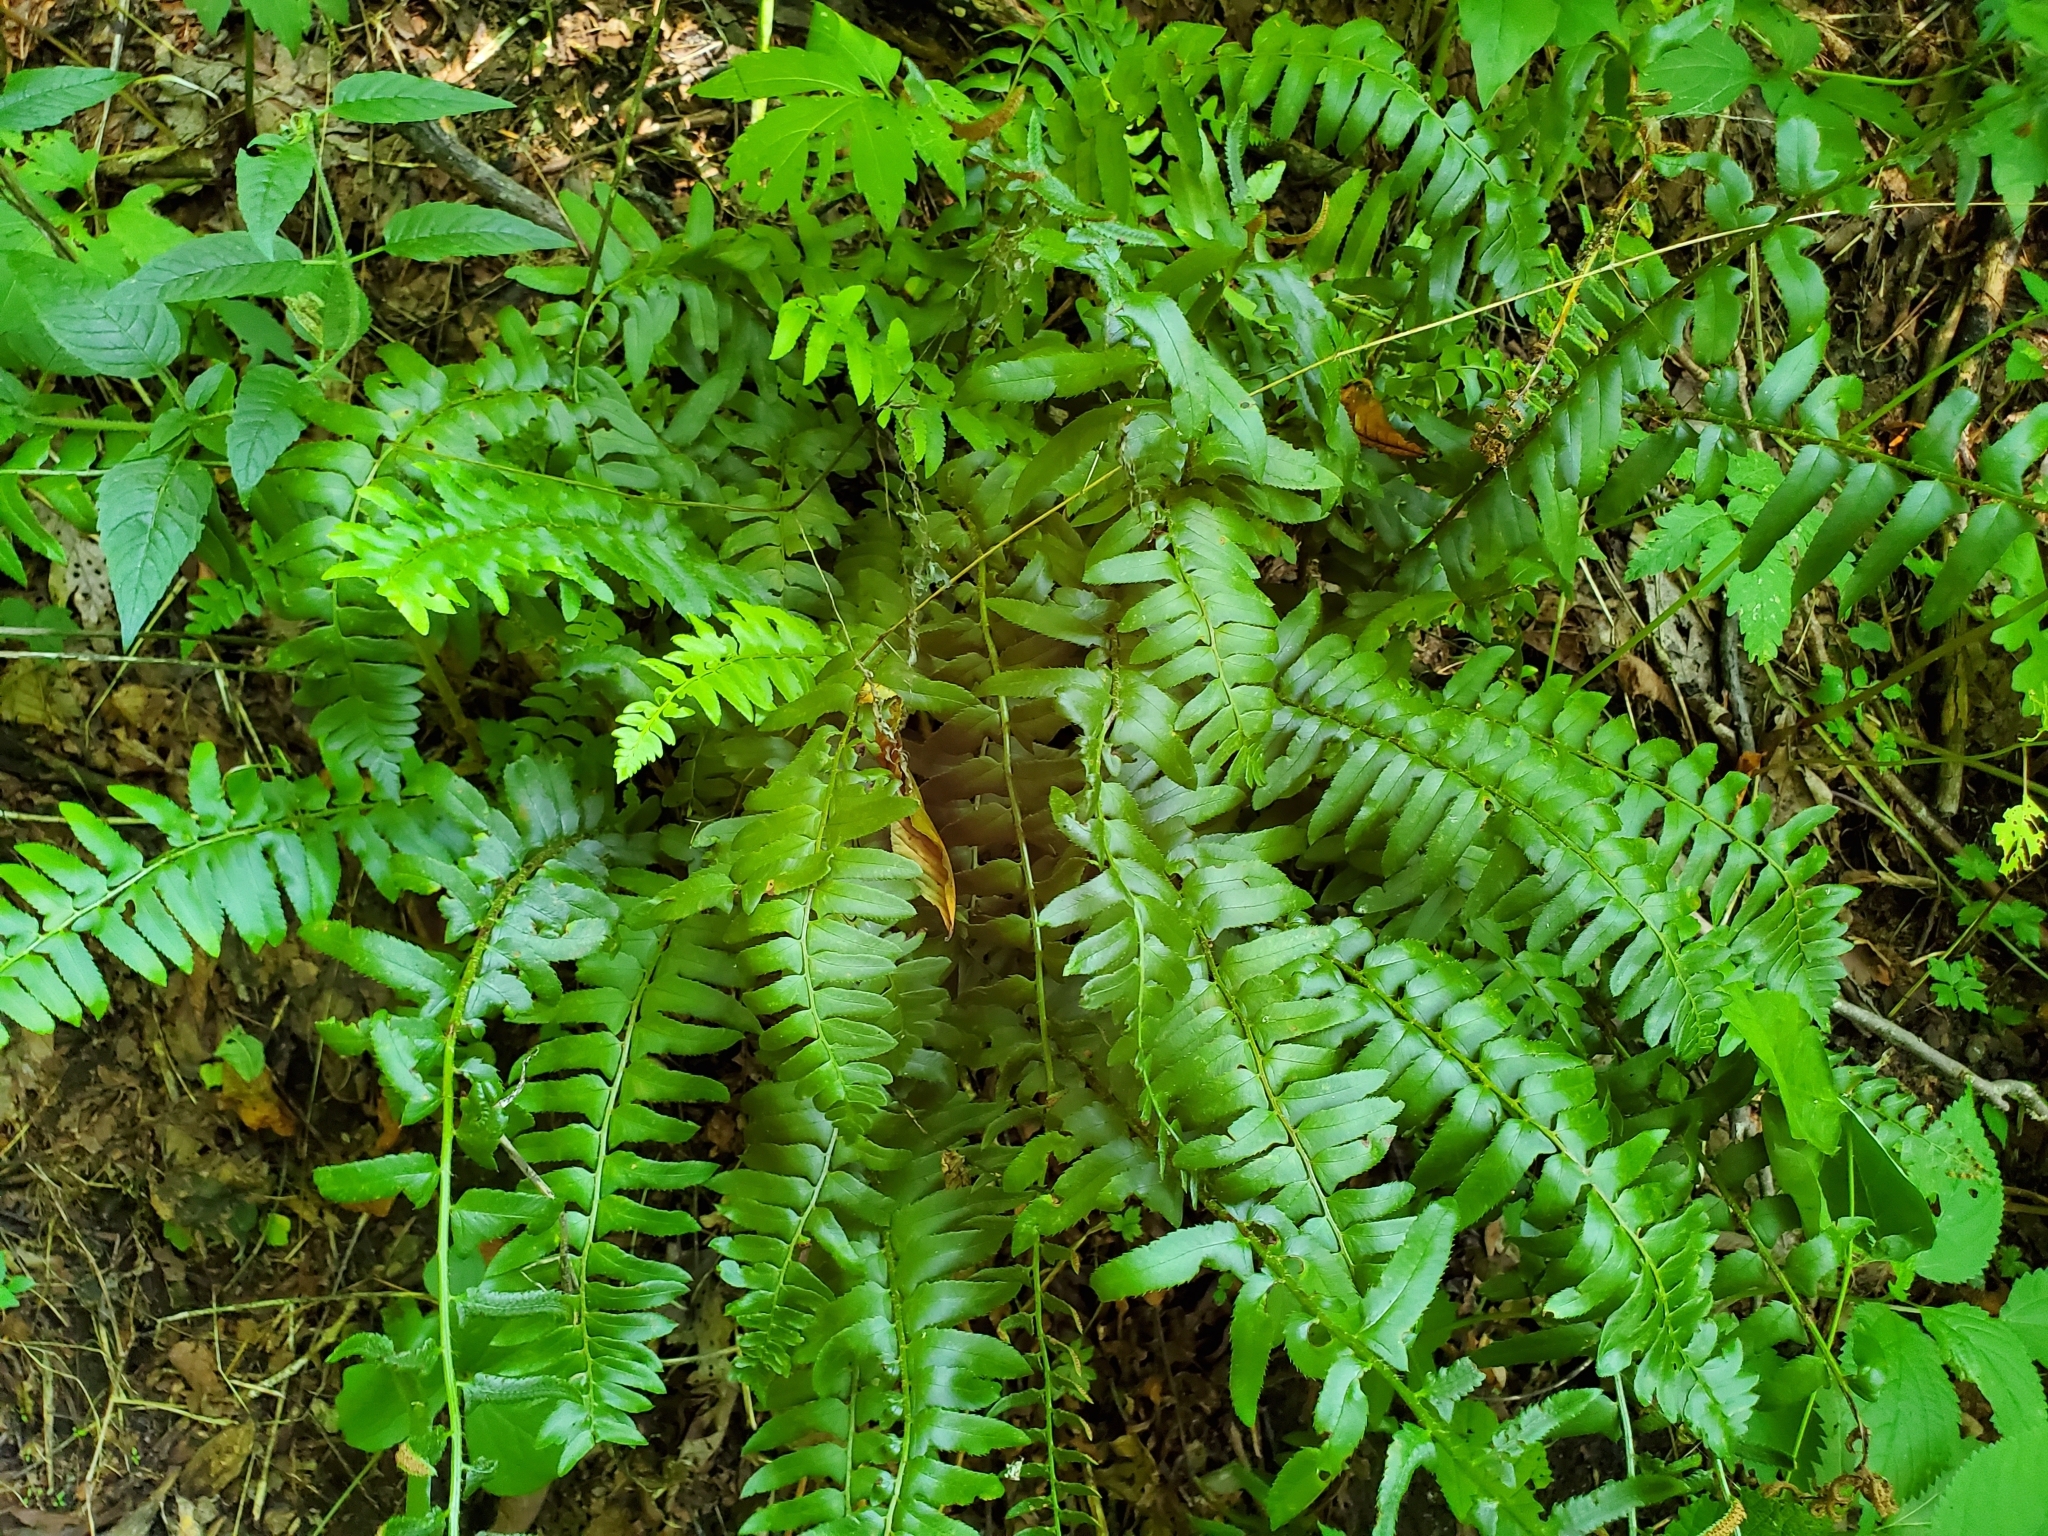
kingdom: Plantae
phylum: Tracheophyta
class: Polypodiopsida
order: Polypodiales
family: Dryopteridaceae
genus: Polystichum
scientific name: Polystichum acrostichoides
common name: Christmas fern
